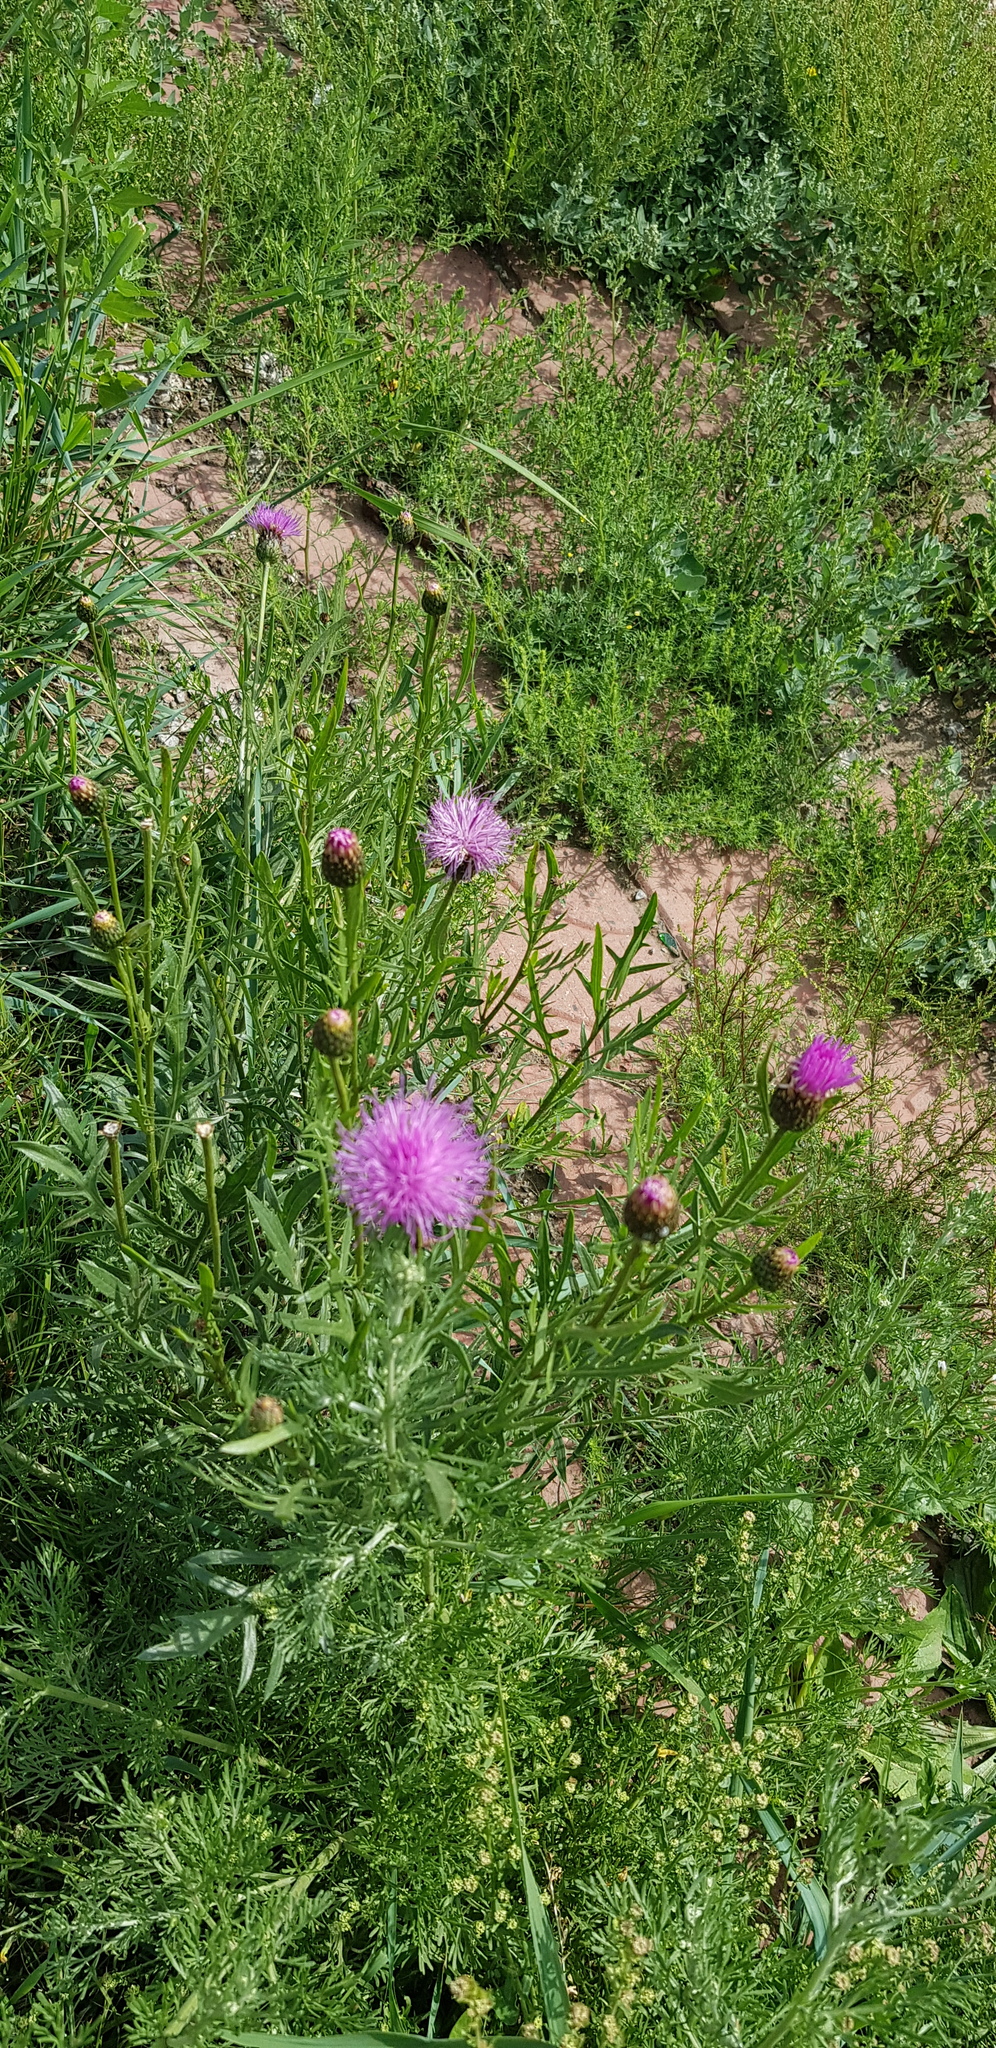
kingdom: Plantae
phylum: Tracheophyta
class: Magnoliopsida
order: Asterales
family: Asteraceae
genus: Klasea
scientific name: Klasea centauroides
